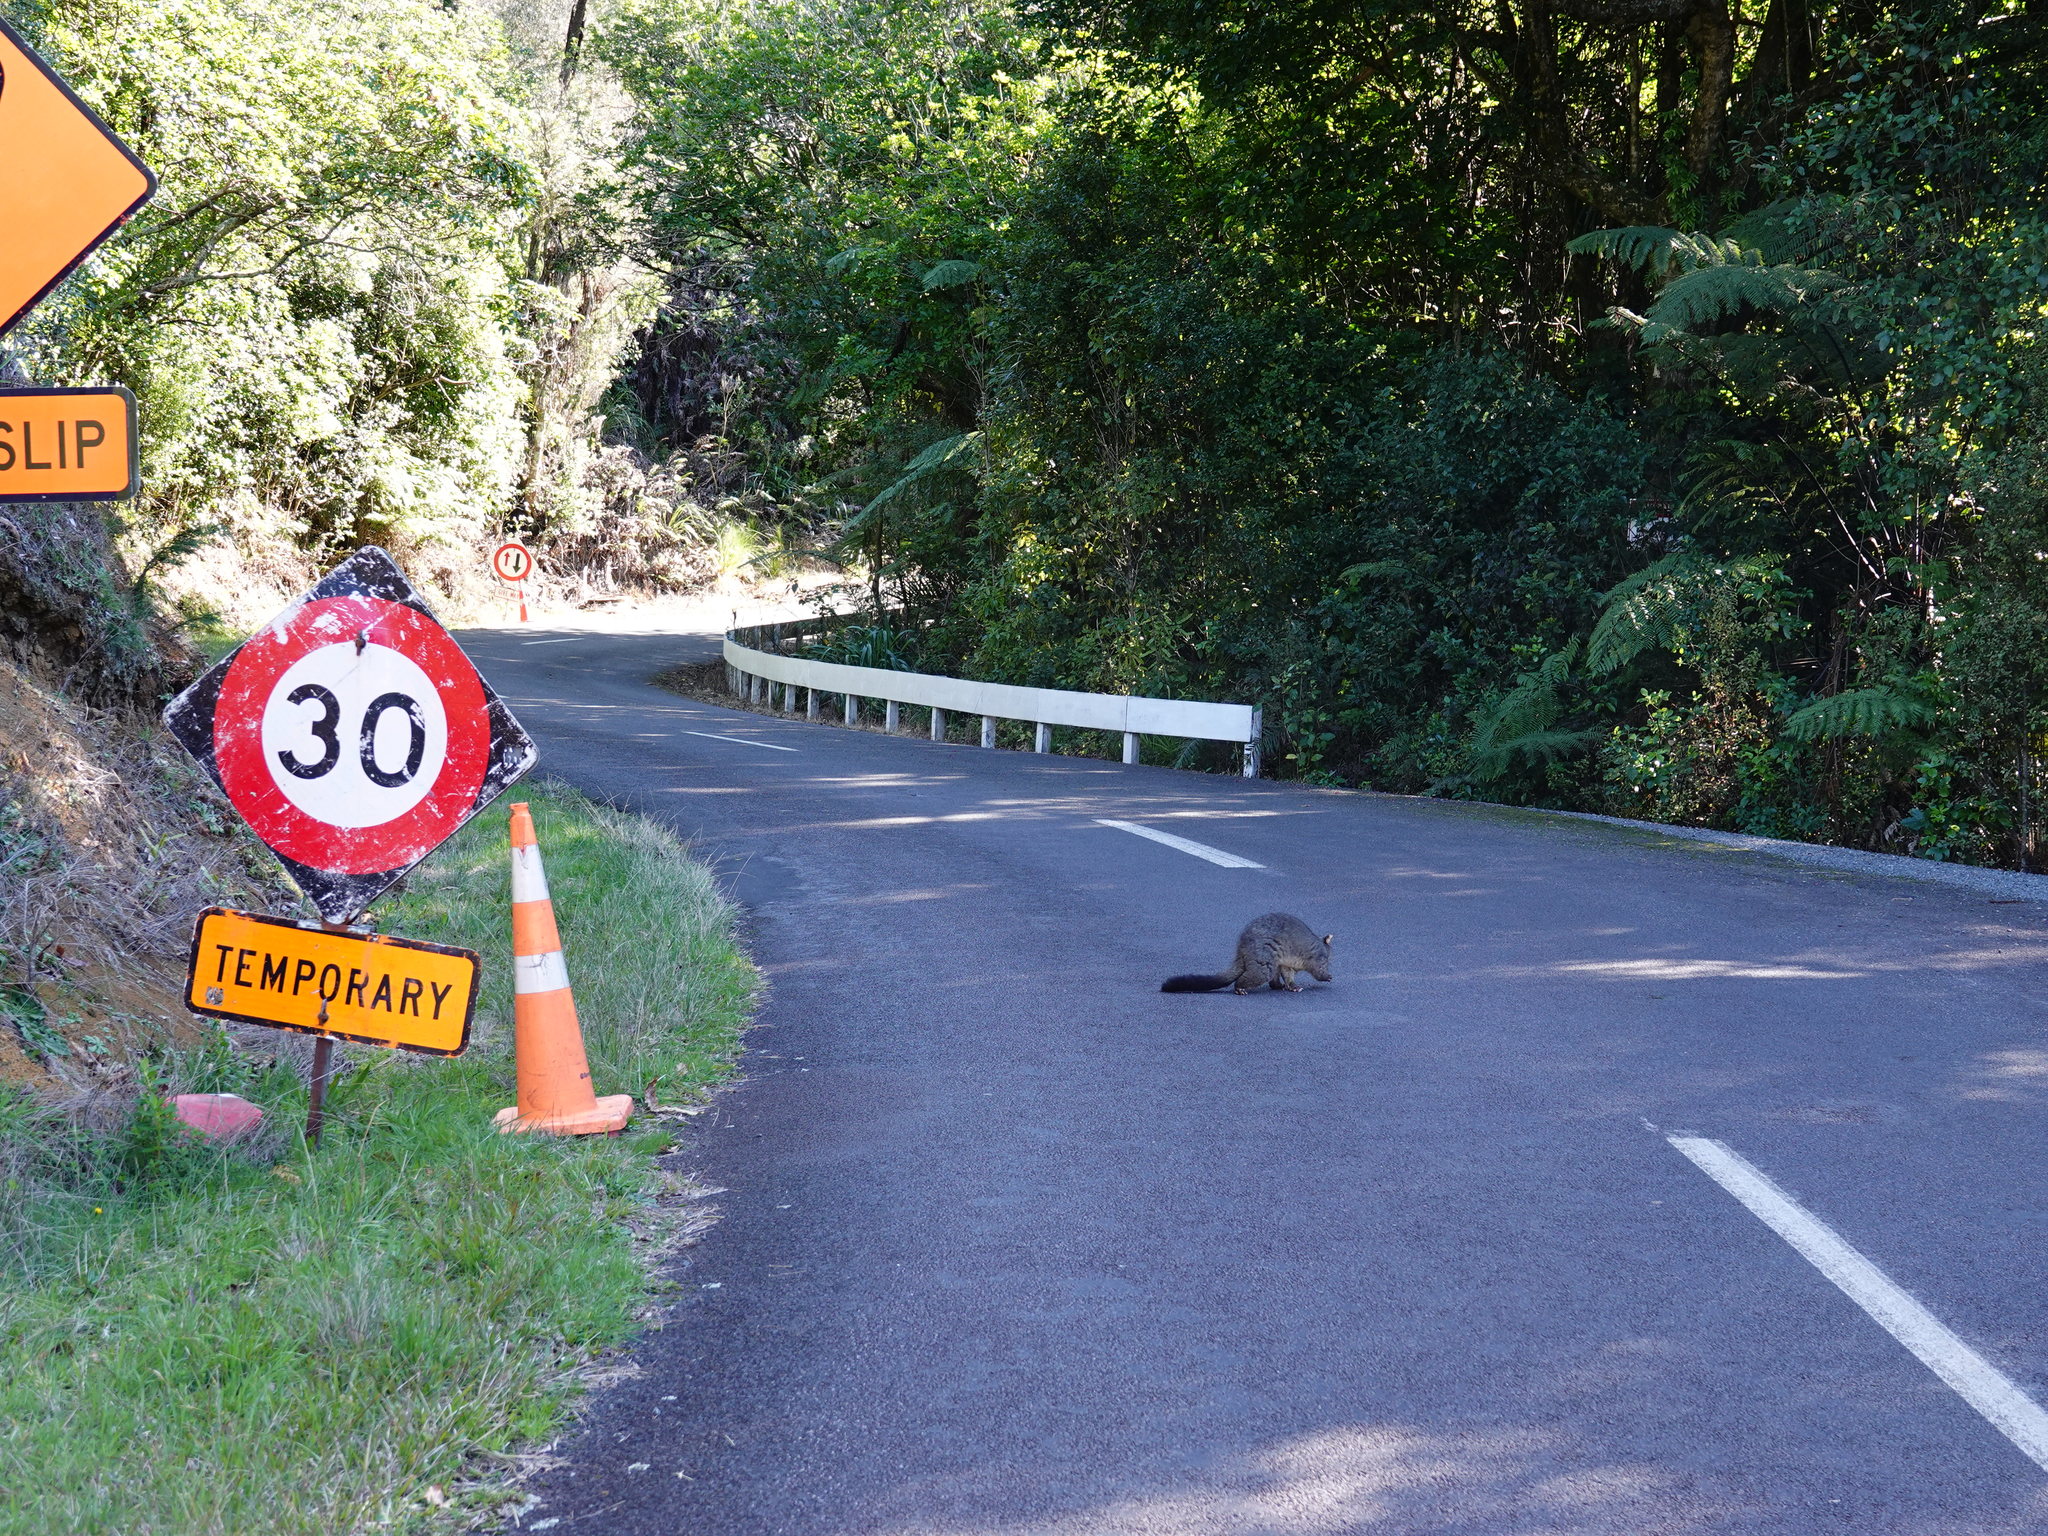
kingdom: Animalia
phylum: Chordata
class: Mammalia
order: Diprotodontia
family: Phalangeridae
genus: Trichosurus
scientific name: Trichosurus vulpecula
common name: Common brushtail
